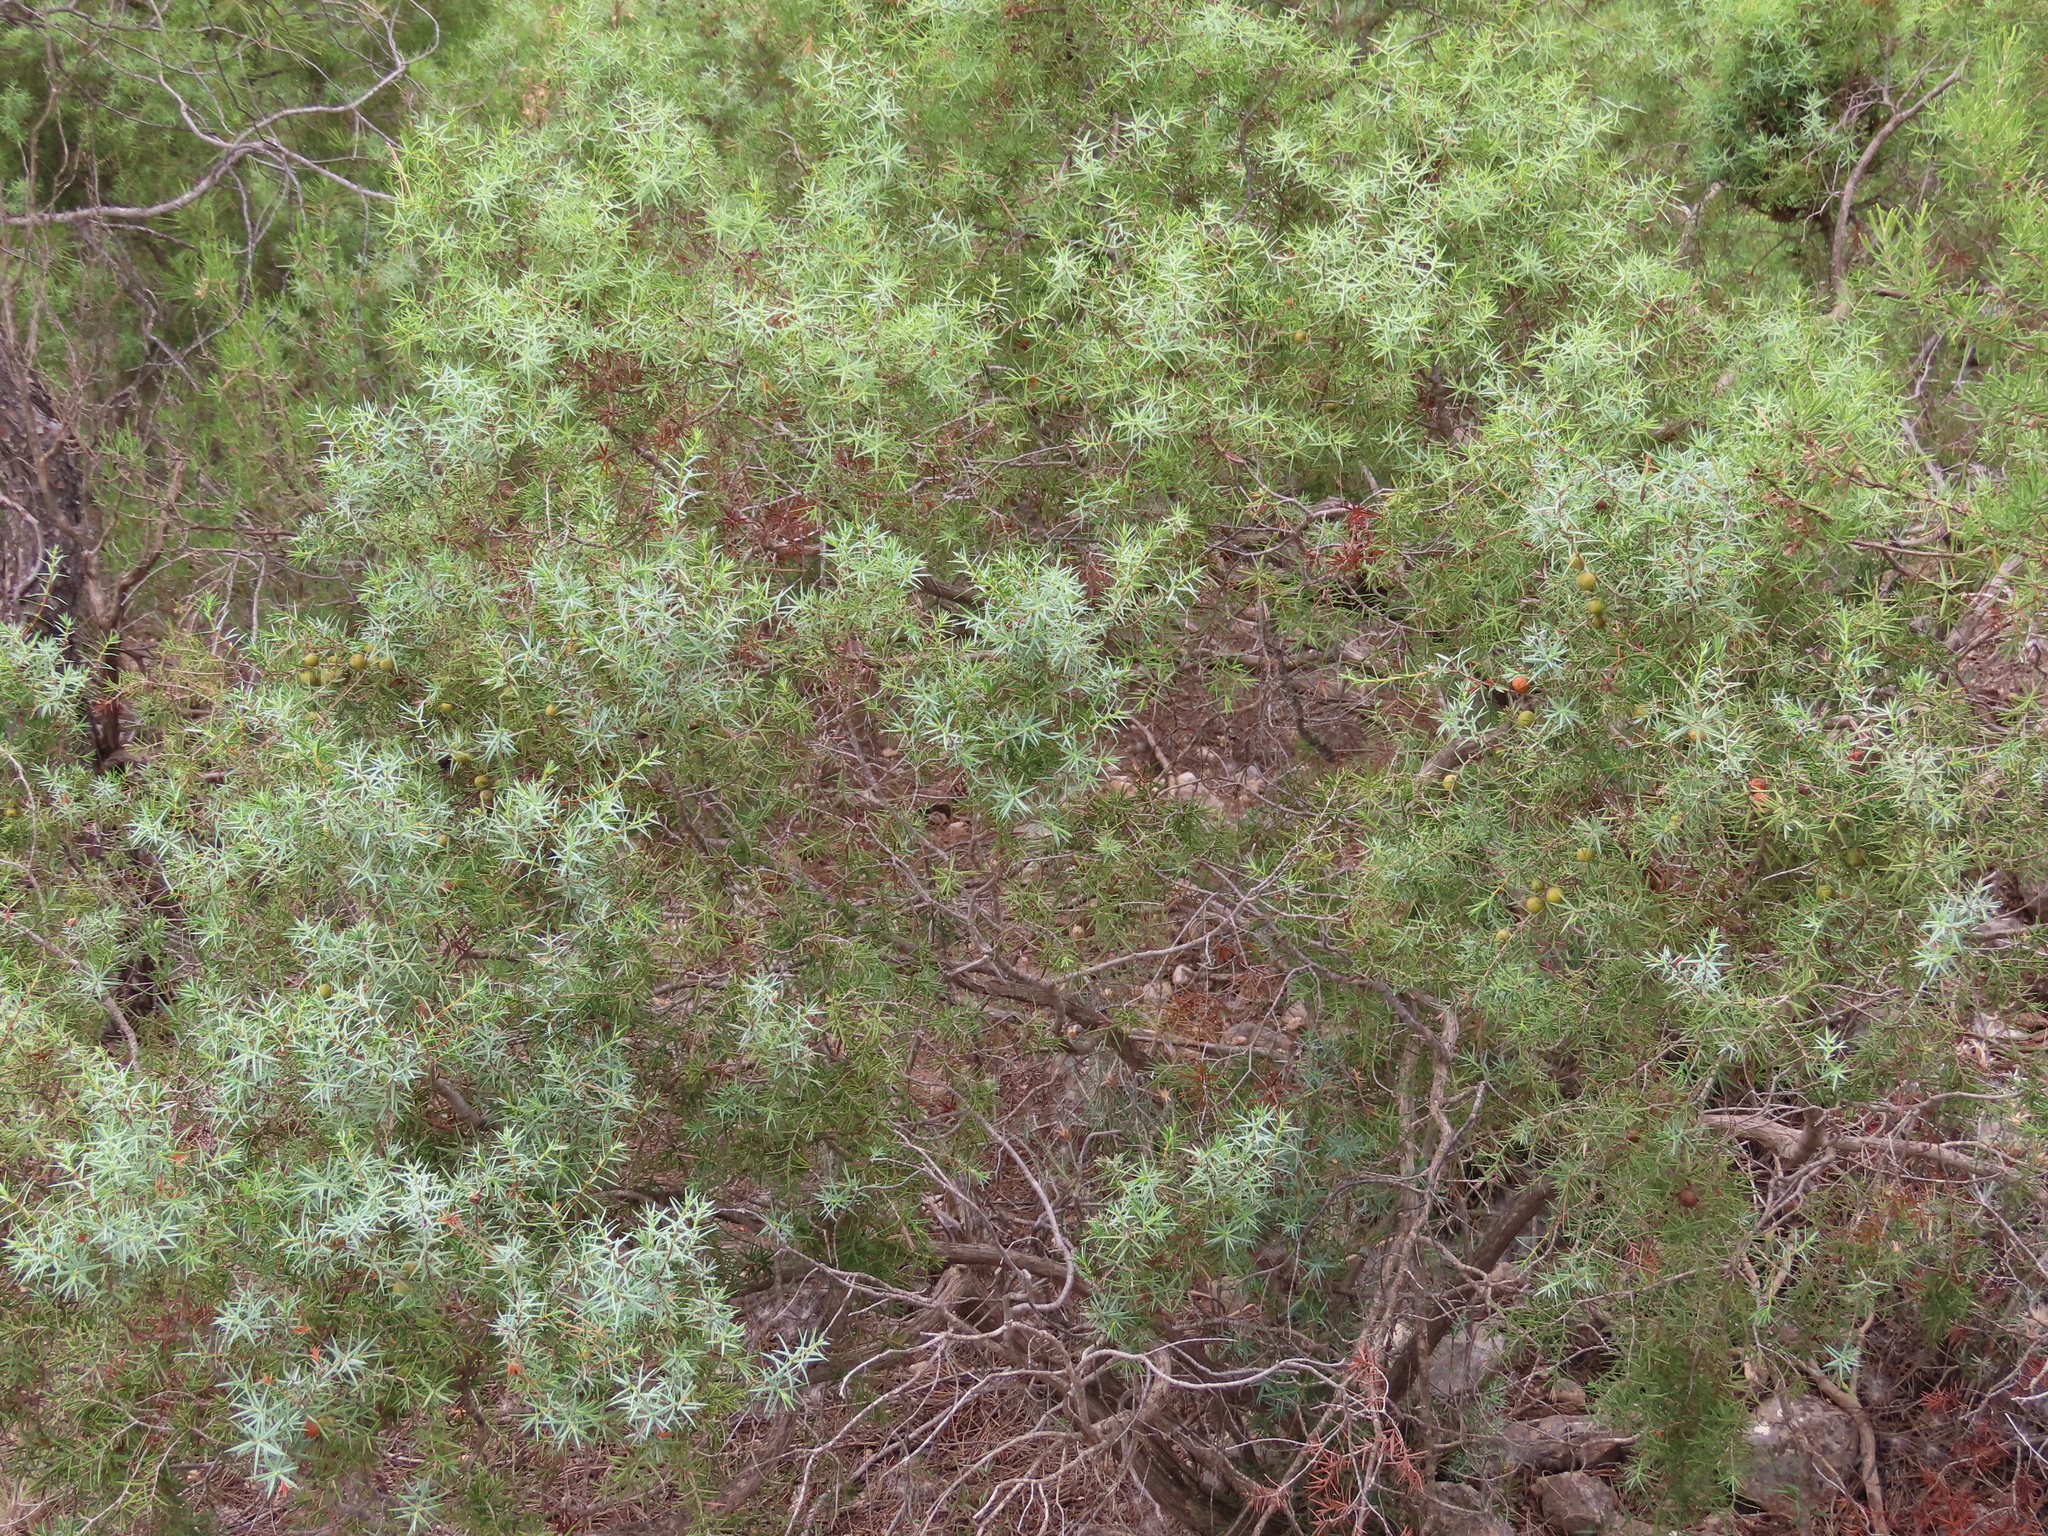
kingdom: Plantae
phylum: Tracheophyta
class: Pinopsida
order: Pinales
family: Cupressaceae
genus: Juniperus
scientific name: Juniperus oxycedrus
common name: Prickly juniper
